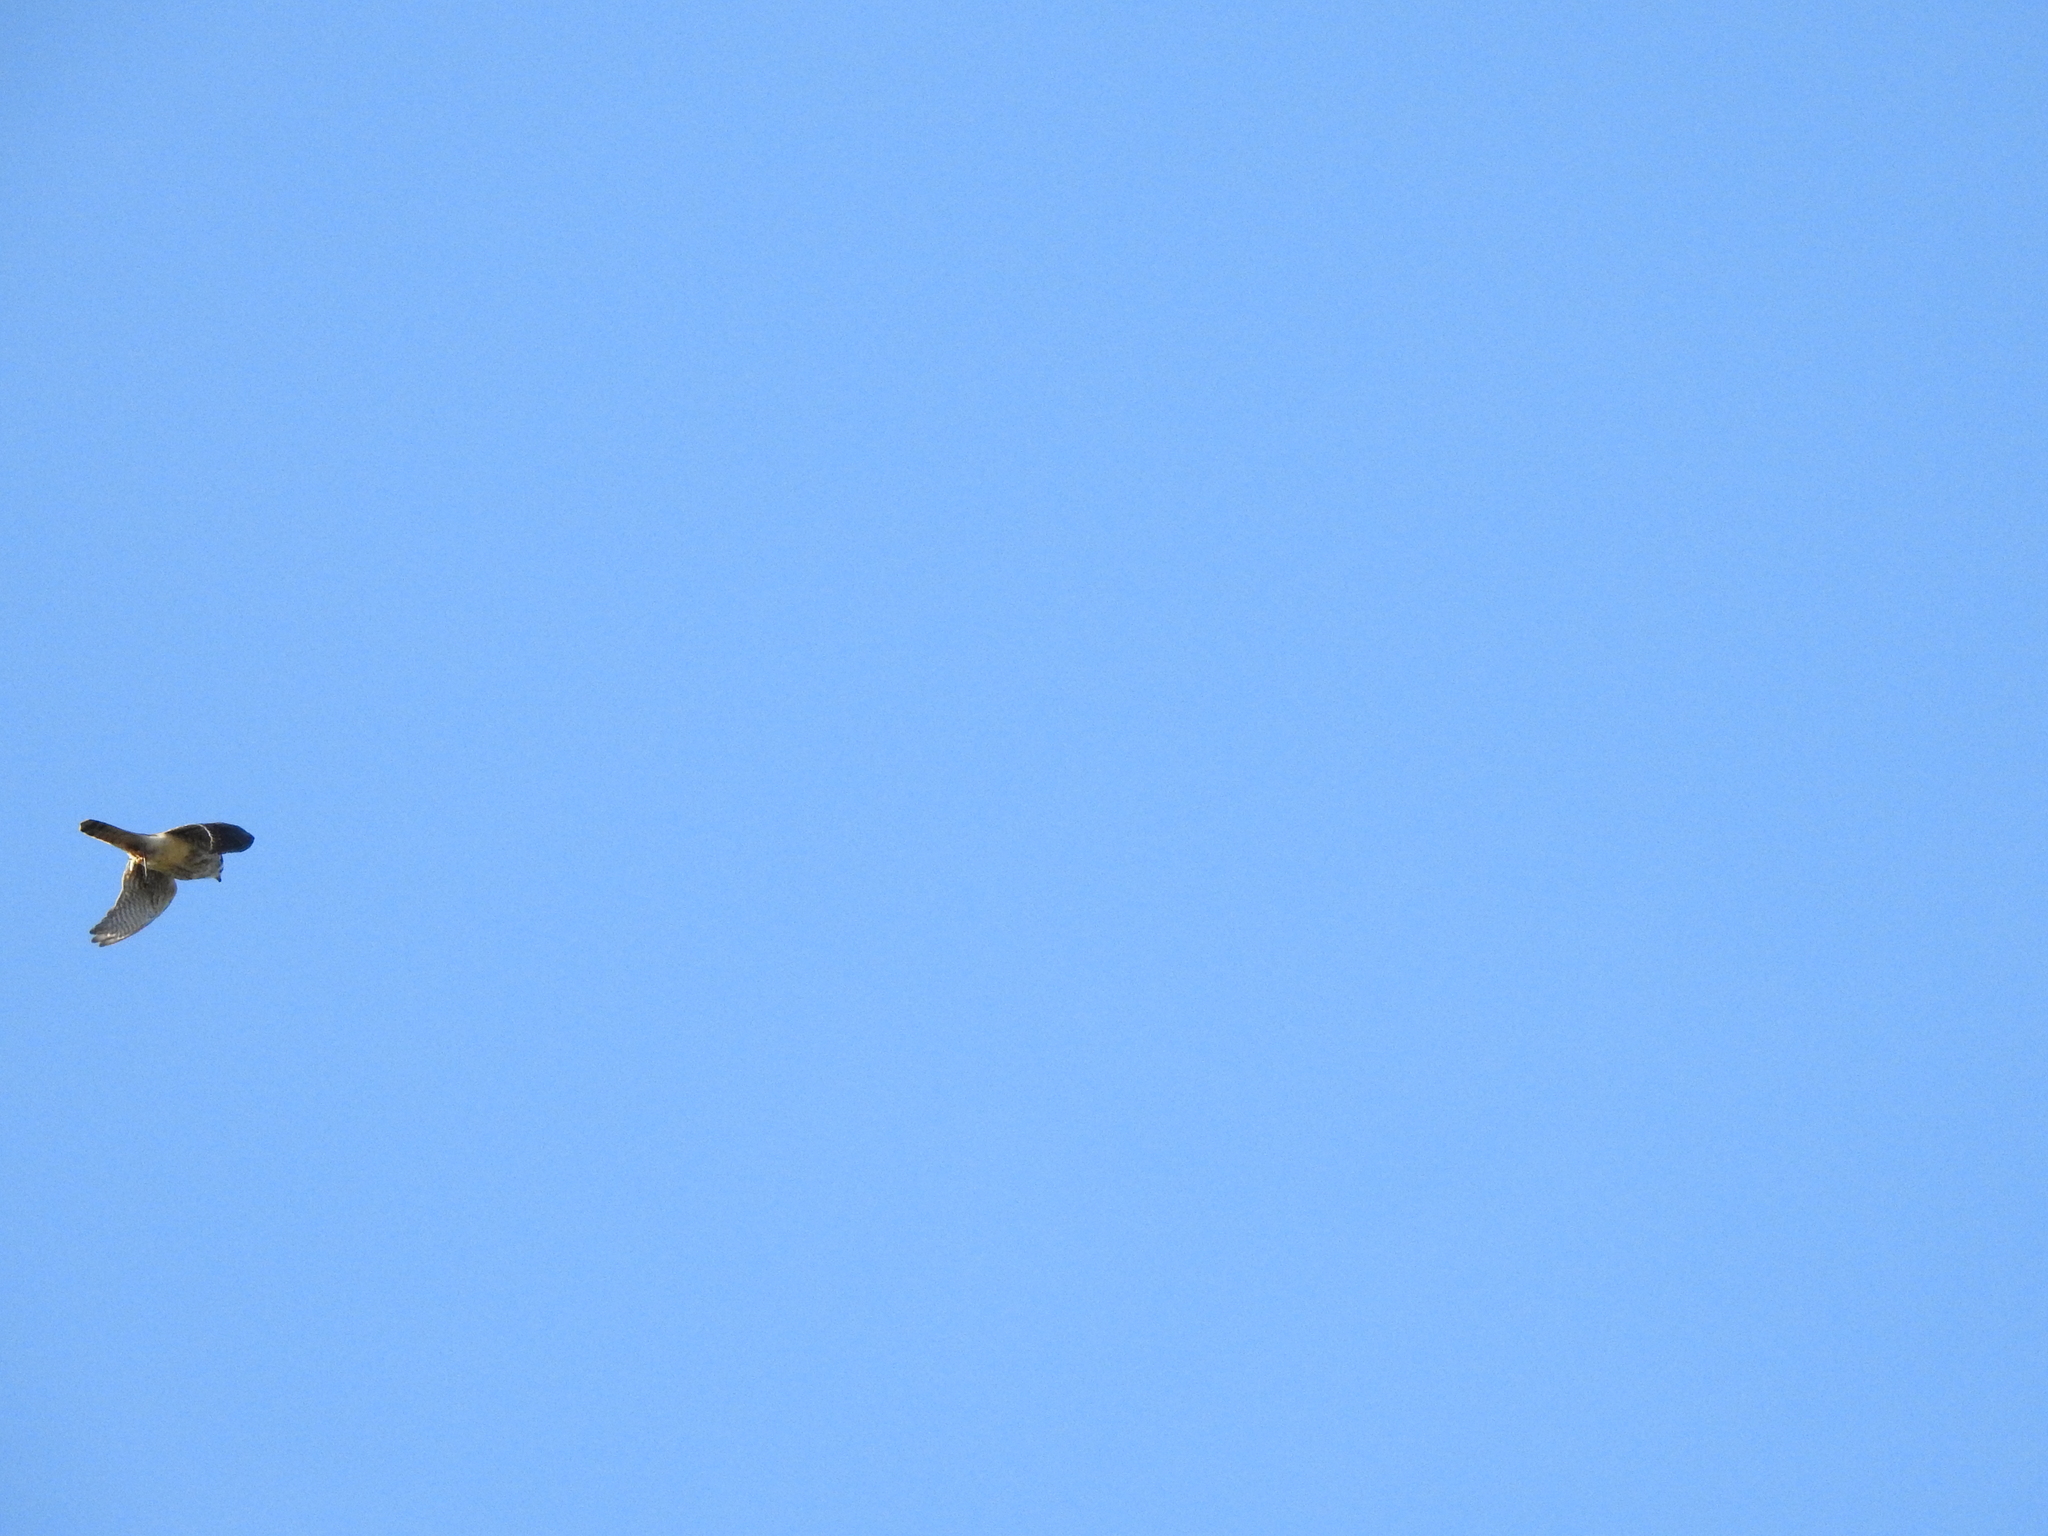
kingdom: Animalia
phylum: Chordata
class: Aves
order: Falconiformes
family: Falconidae
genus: Falco
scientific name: Falco sparverius
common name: American kestrel
